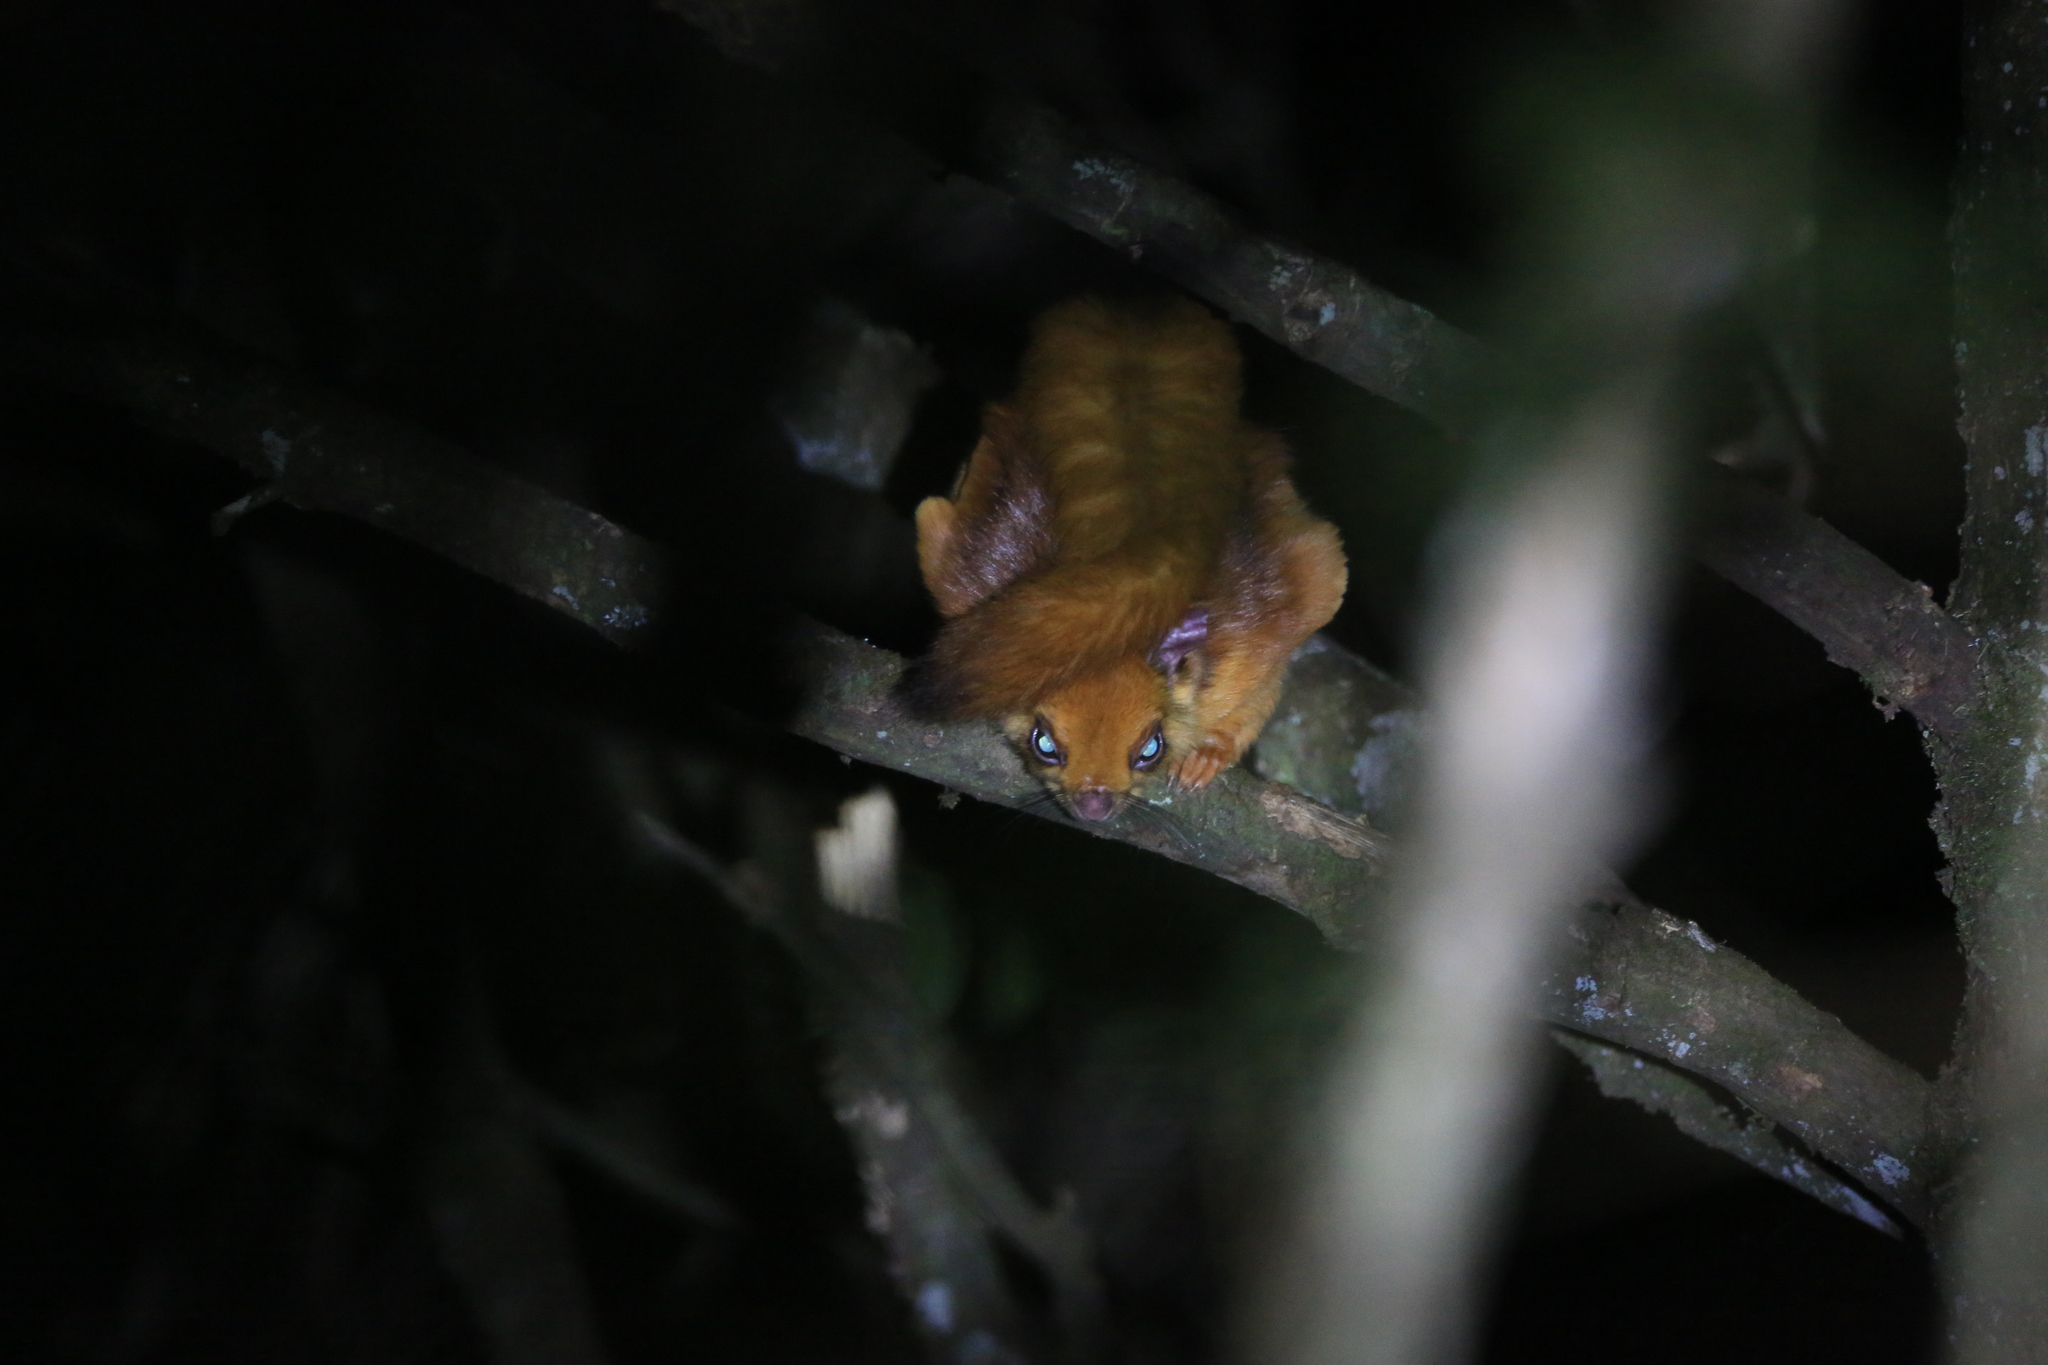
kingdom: Animalia
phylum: Chordata
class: Mammalia
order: Rodentia
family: Sciuridae
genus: Petaurista
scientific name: Petaurista petaurista
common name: Red giant flying squirrel
